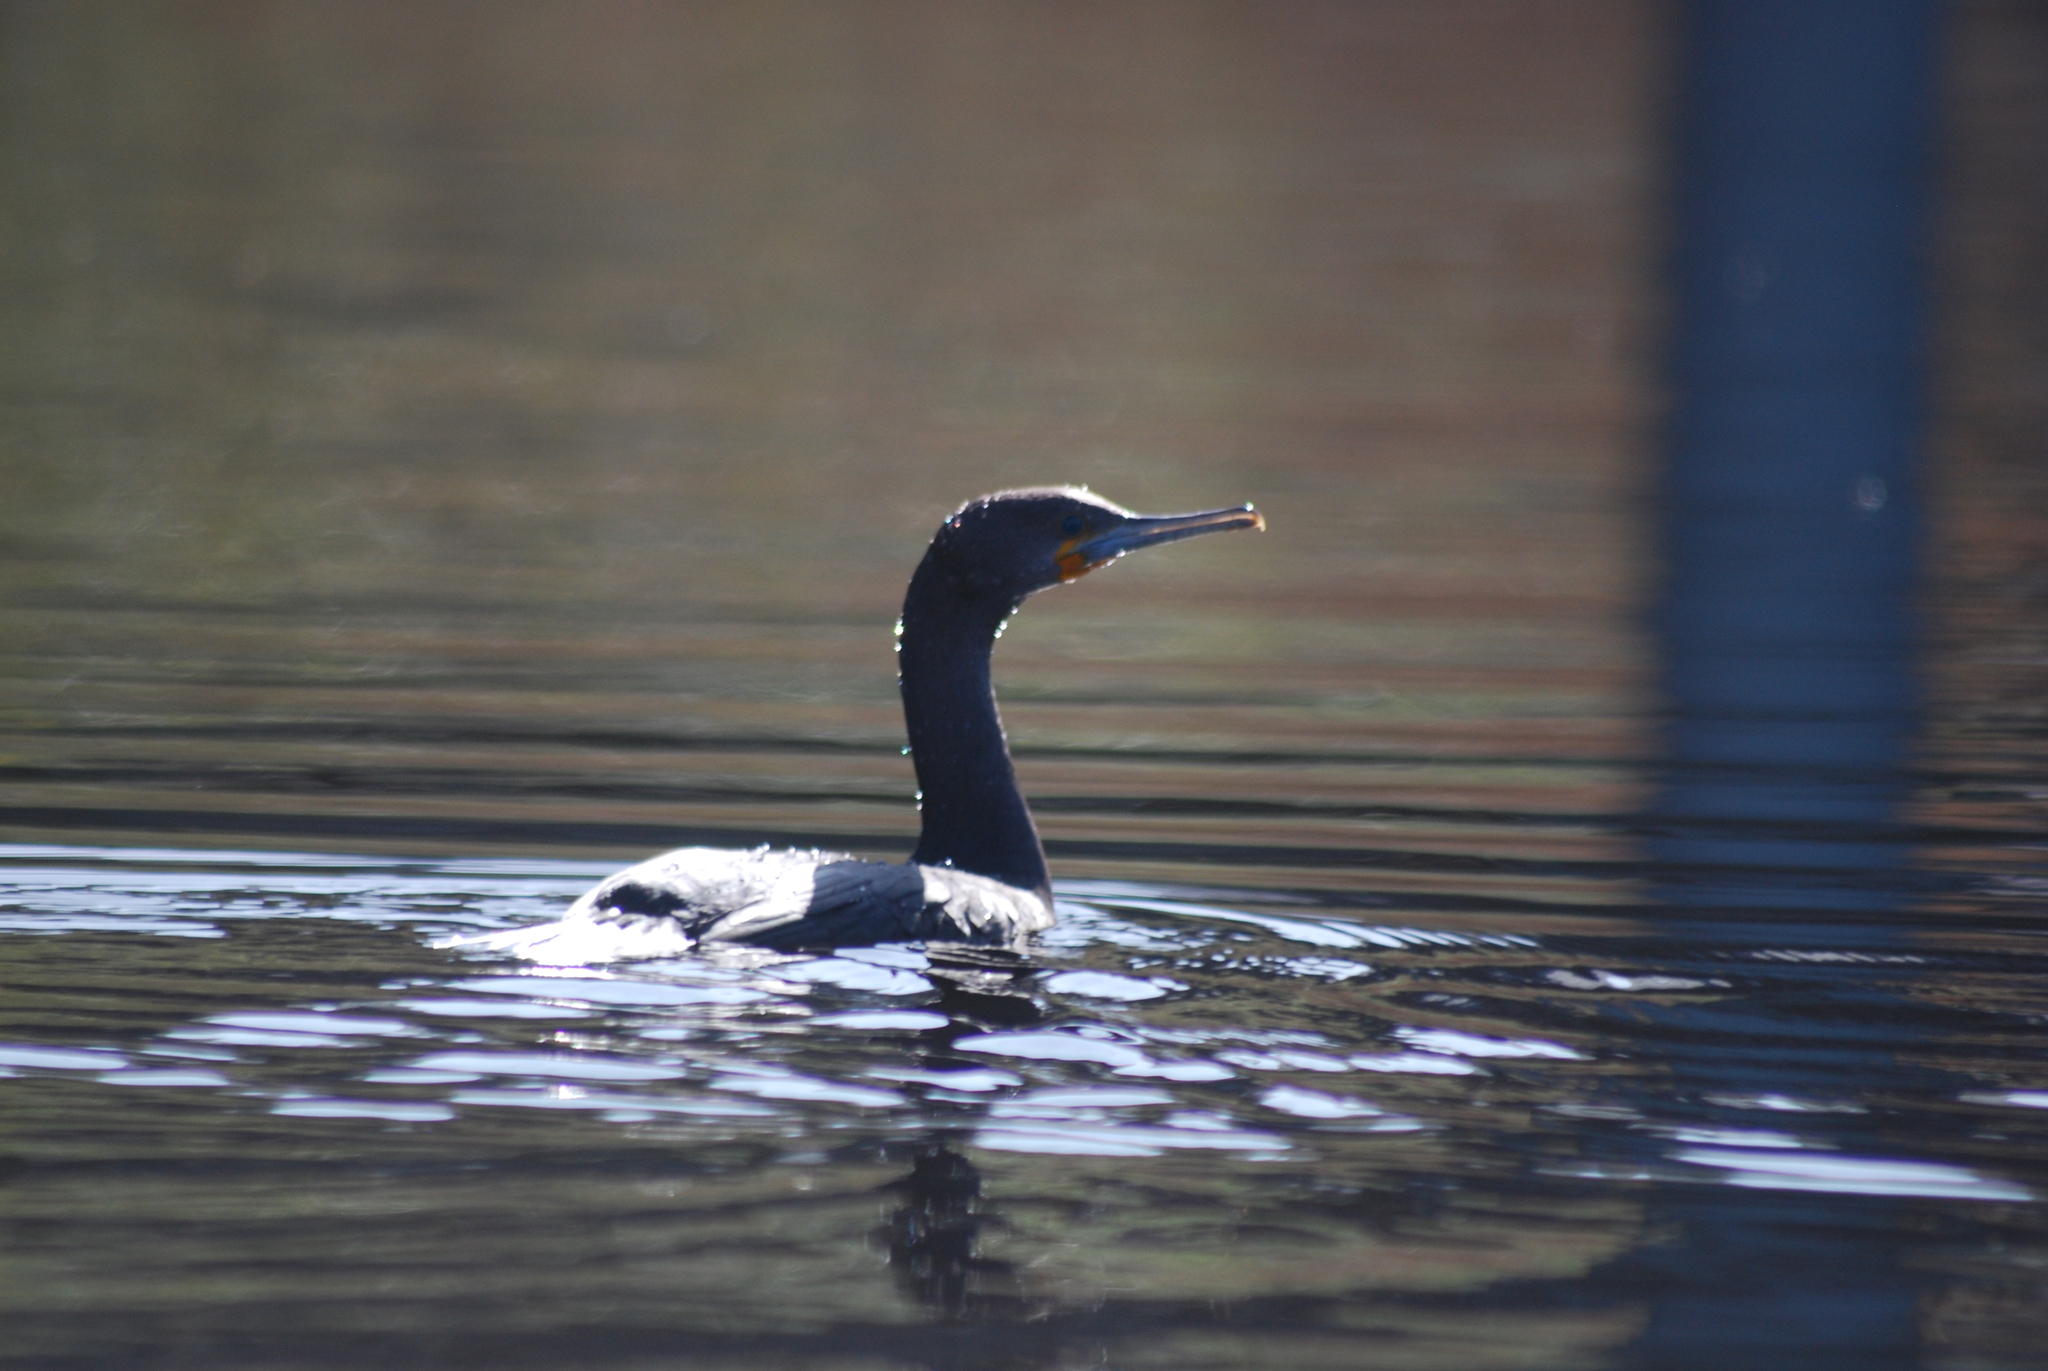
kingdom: Animalia
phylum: Chordata
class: Aves
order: Suliformes
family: Phalacrocoracidae
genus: Phalacrocorax
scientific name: Phalacrocorax capensis
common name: Cape cormorant
